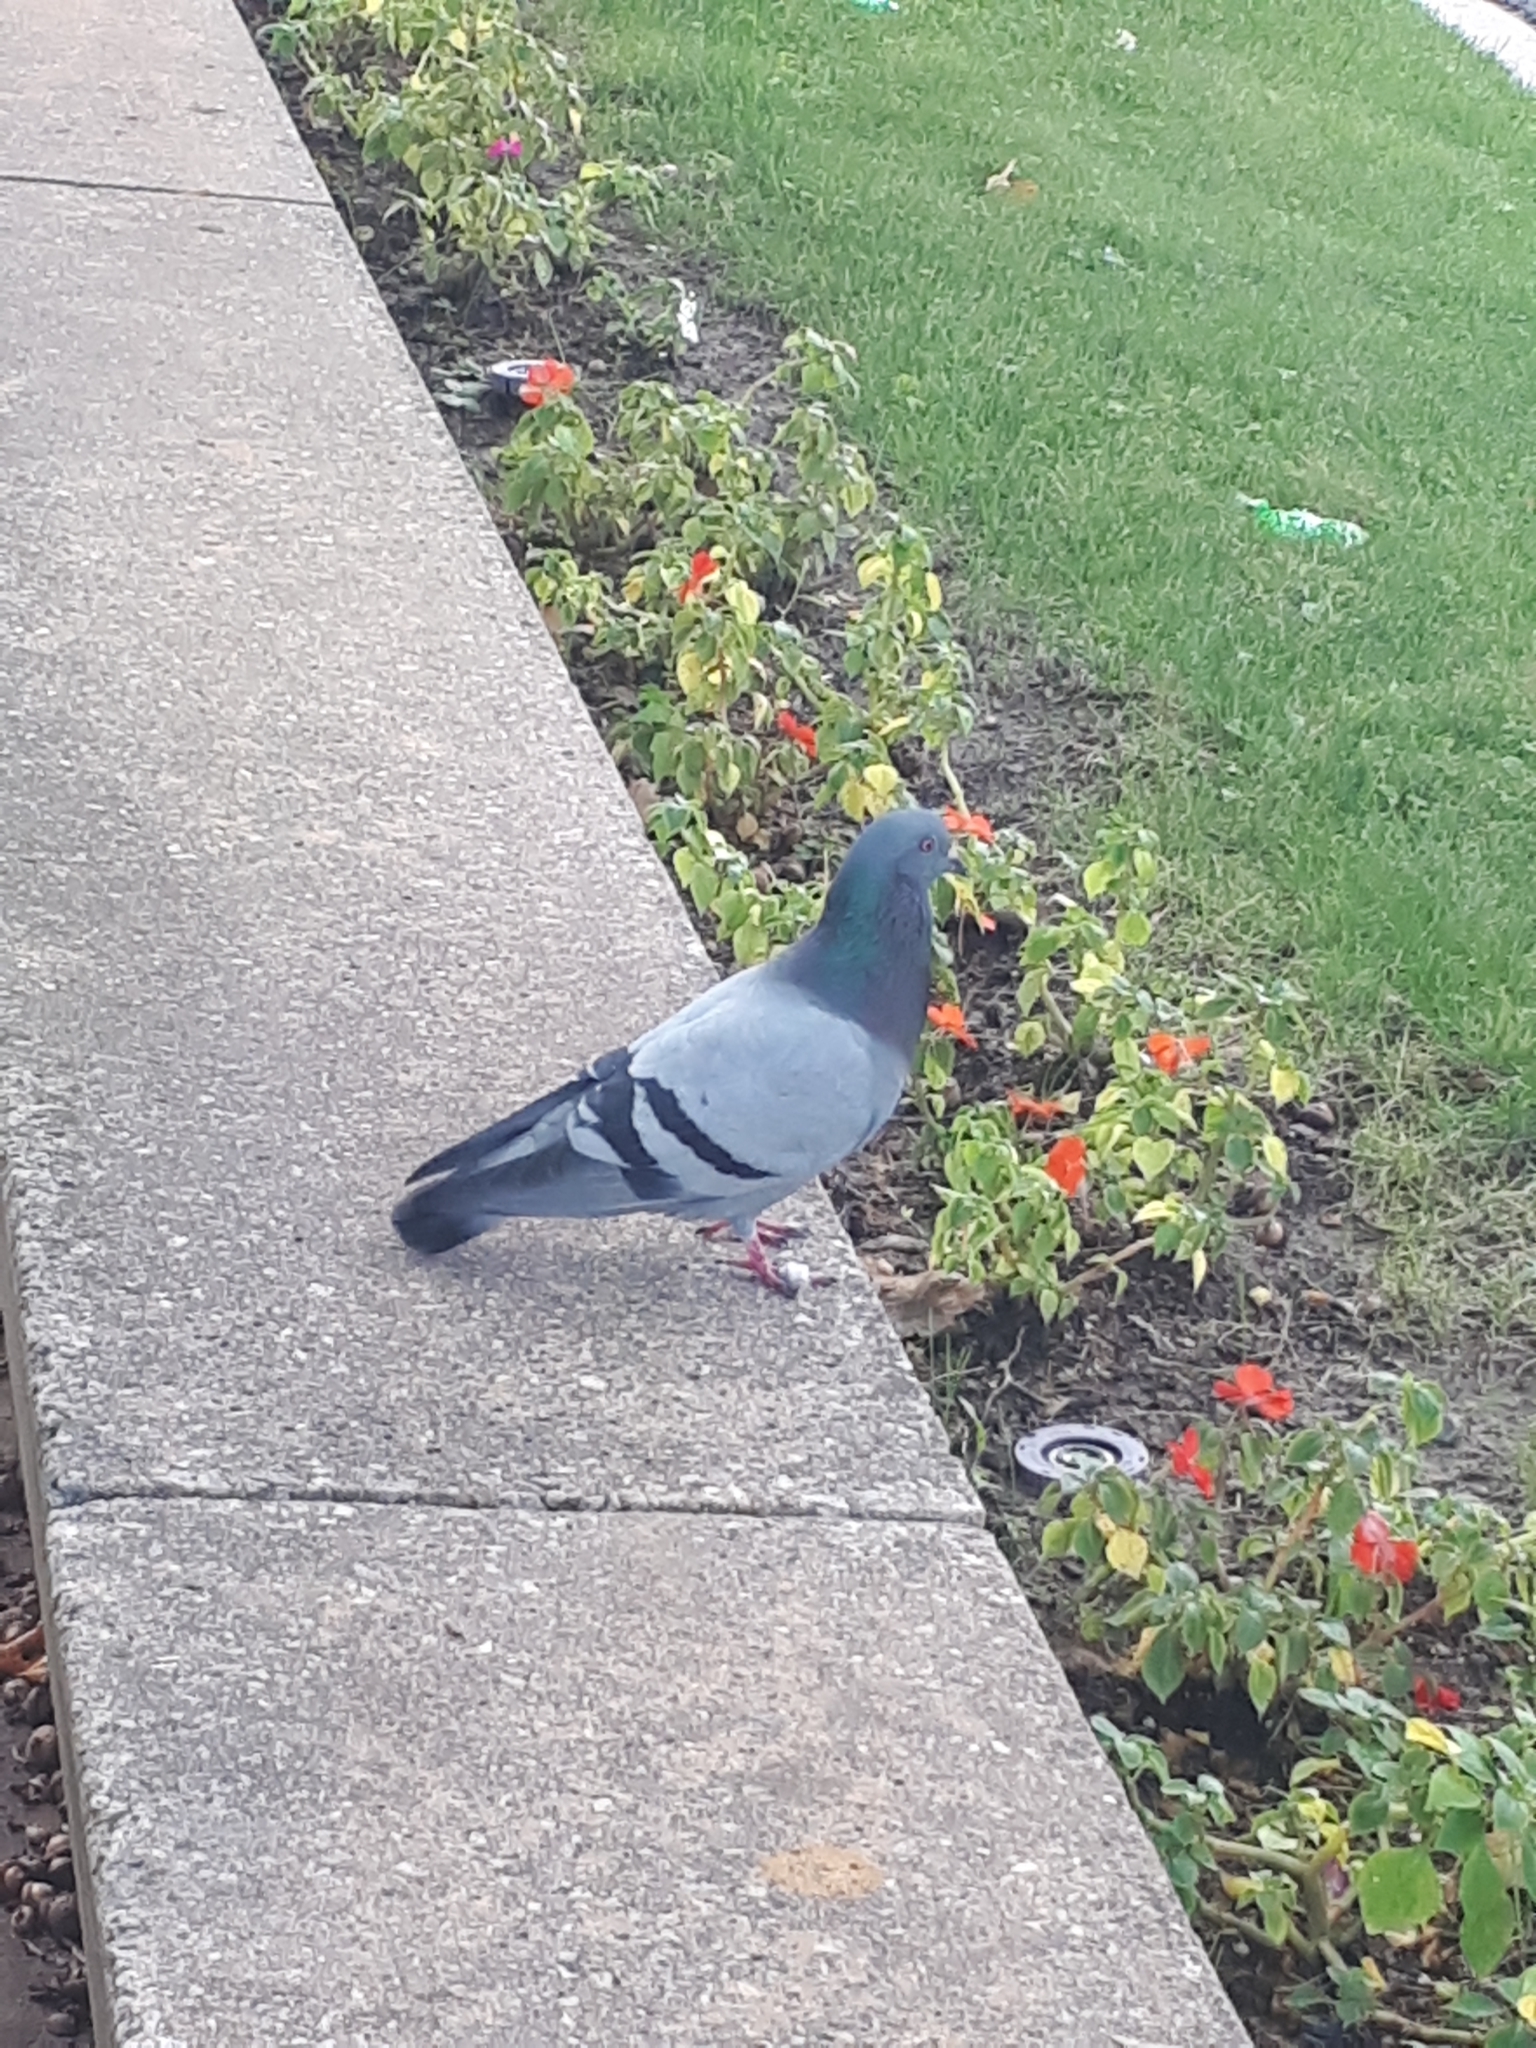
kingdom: Animalia
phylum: Chordata
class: Aves
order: Columbiformes
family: Columbidae
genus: Columba
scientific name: Columba livia
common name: Rock pigeon
